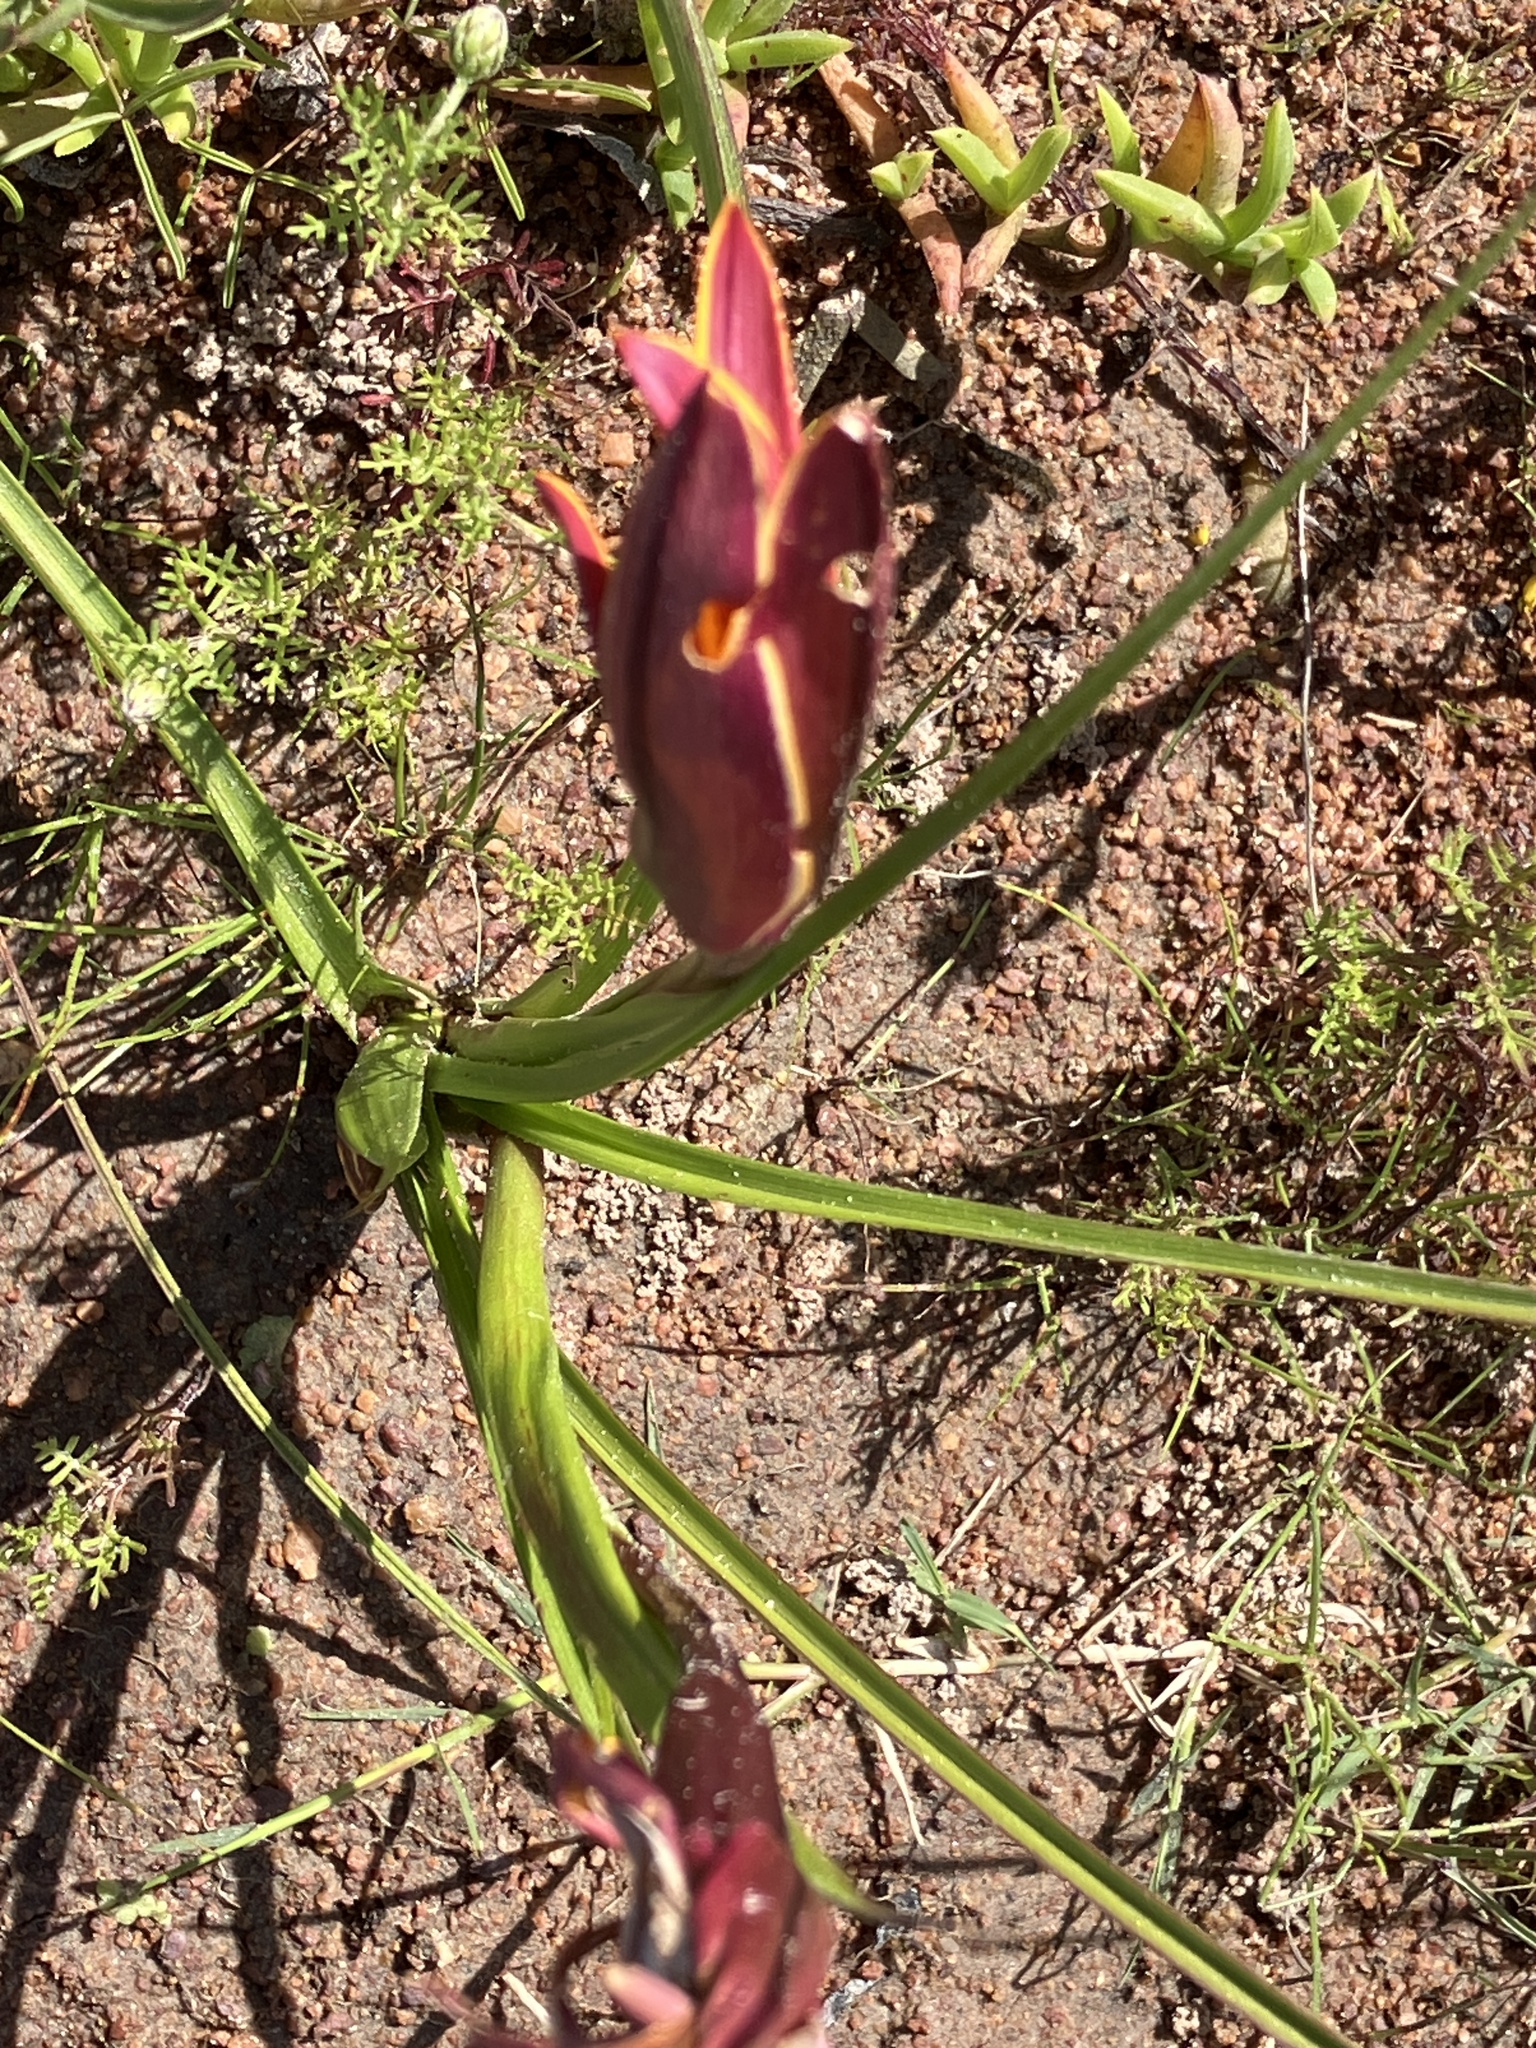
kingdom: Plantae
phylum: Tracheophyta
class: Liliopsida
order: Asparagales
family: Hypoxidaceae
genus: Pauridia
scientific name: Pauridia canaliculata
